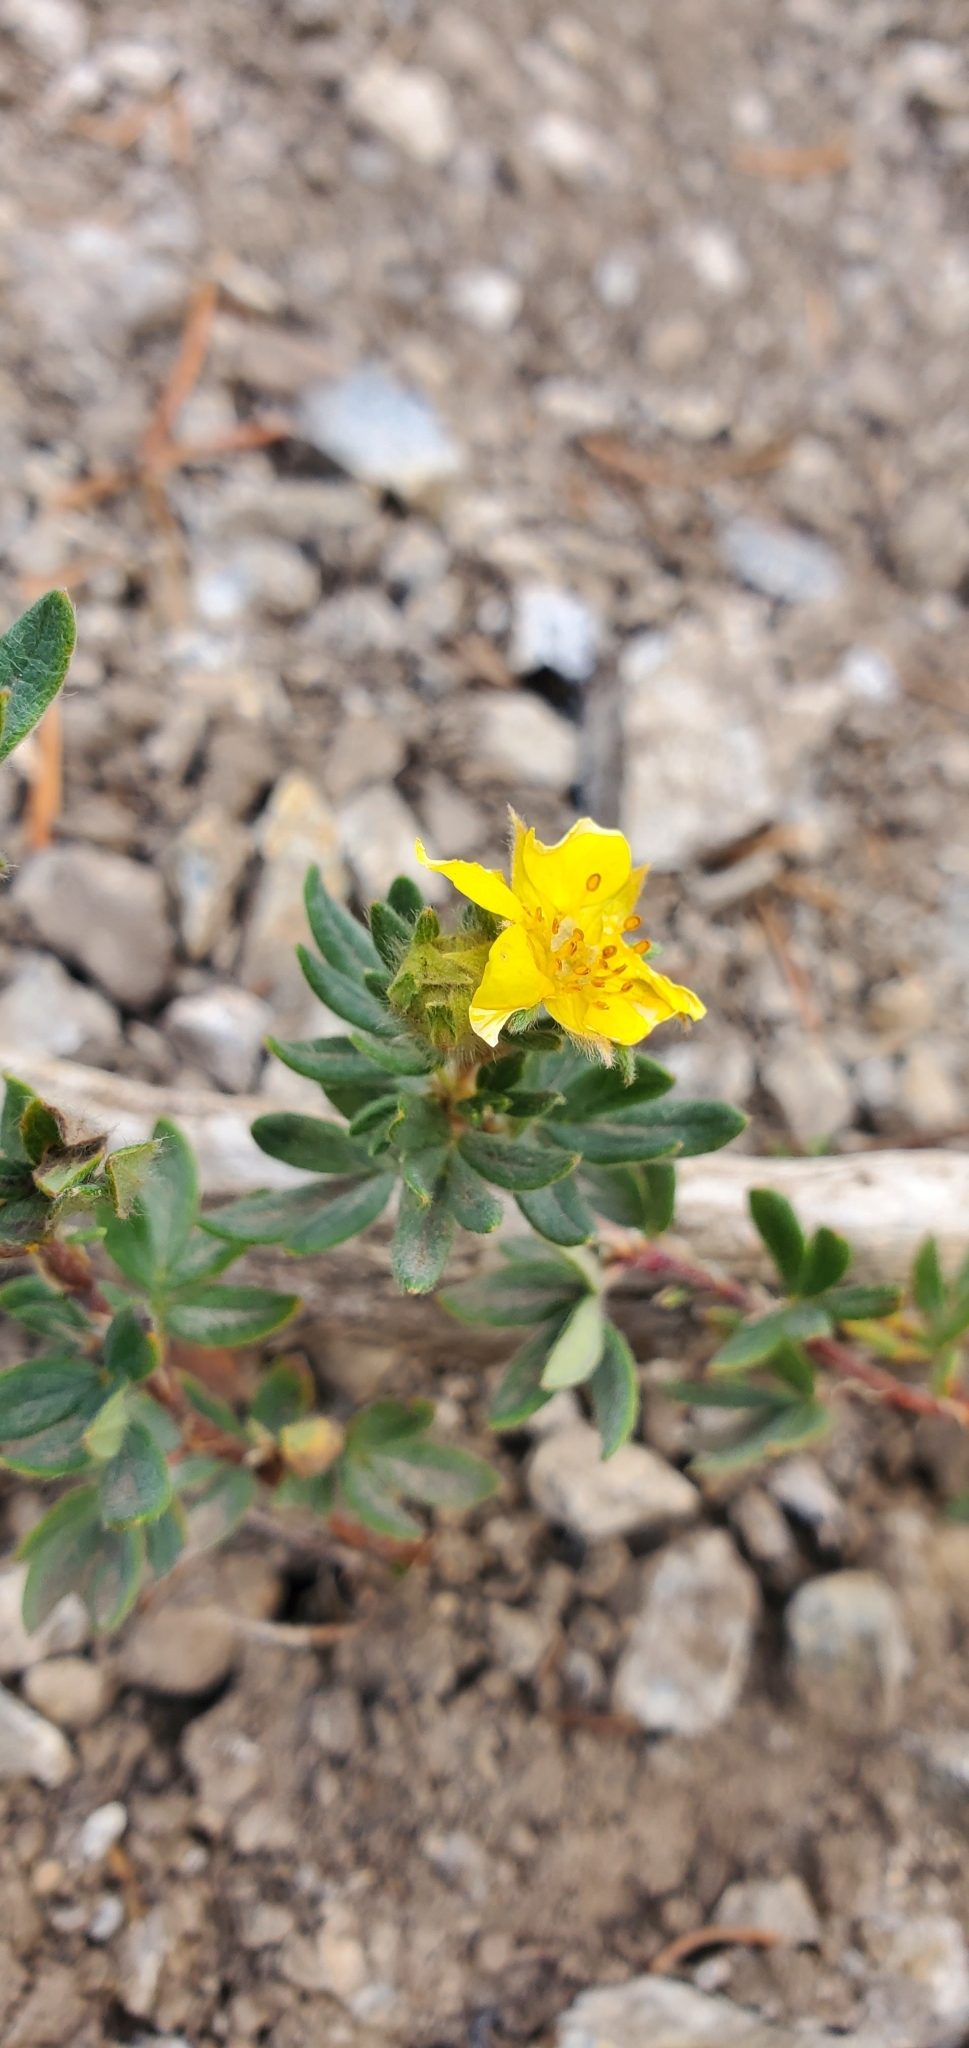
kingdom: Plantae
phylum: Tracheophyta
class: Magnoliopsida
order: Rosales
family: Rosaceae
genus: Dasiphora
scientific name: Dasiphora fruticosa
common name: Shrubby cinquefoil
